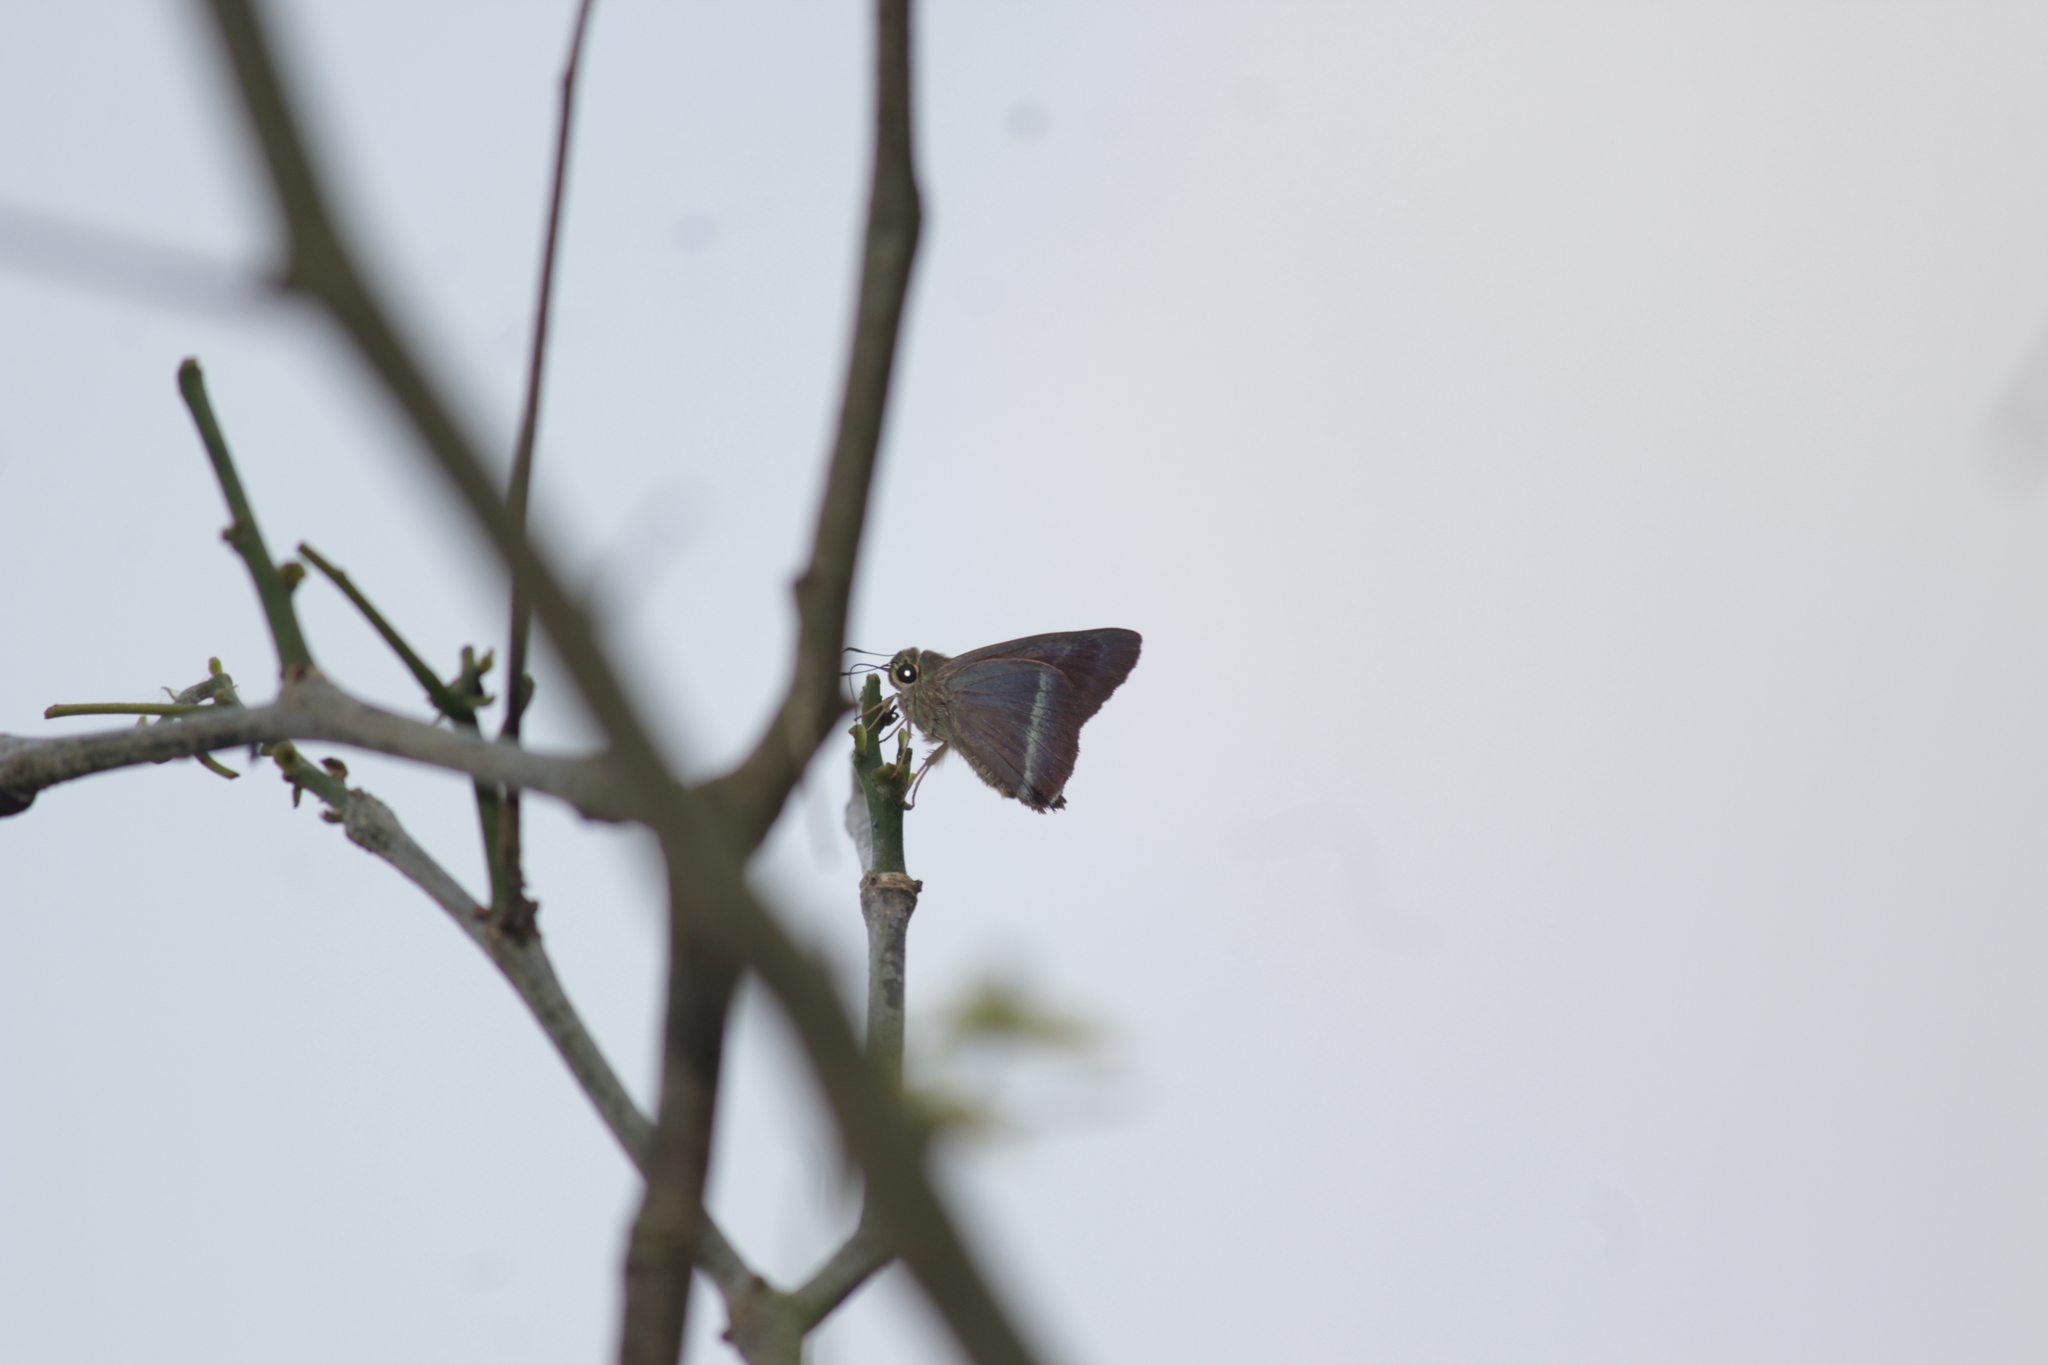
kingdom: Animalia
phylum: Arthropoda
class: Insecta
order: Lepidoptera
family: Hesperiidae
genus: Hasora
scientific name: Hasora chromus
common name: Common banded awl
